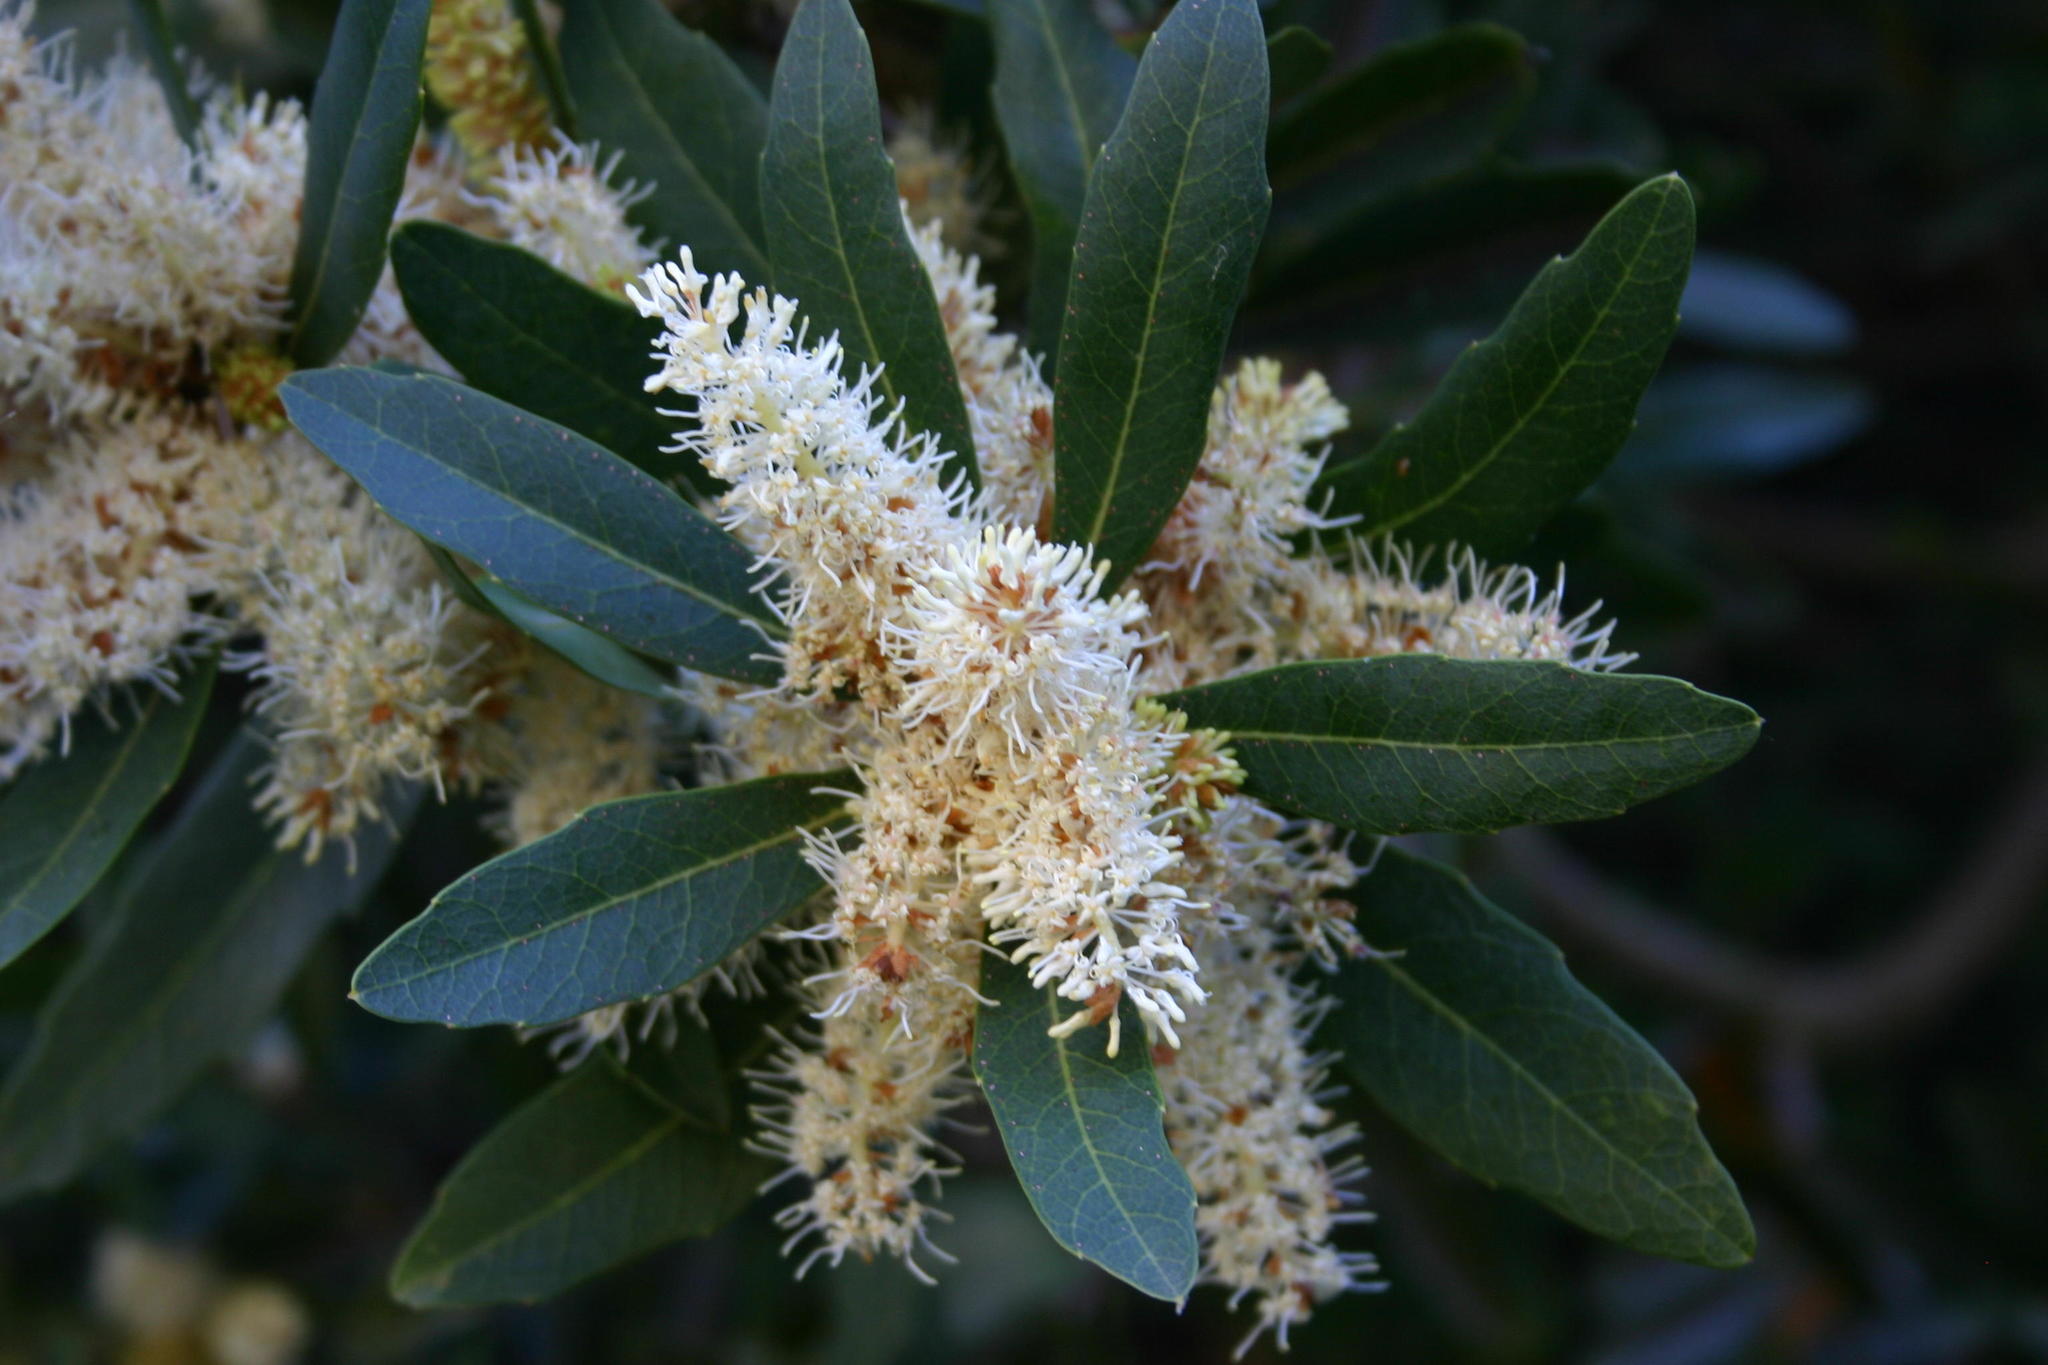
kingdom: Plantae
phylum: Tracheophyta
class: Magnoliopsida
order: Proteales
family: Proteaceae
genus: Brabejum
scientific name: Brabejum stellatifolium
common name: Wild almond
